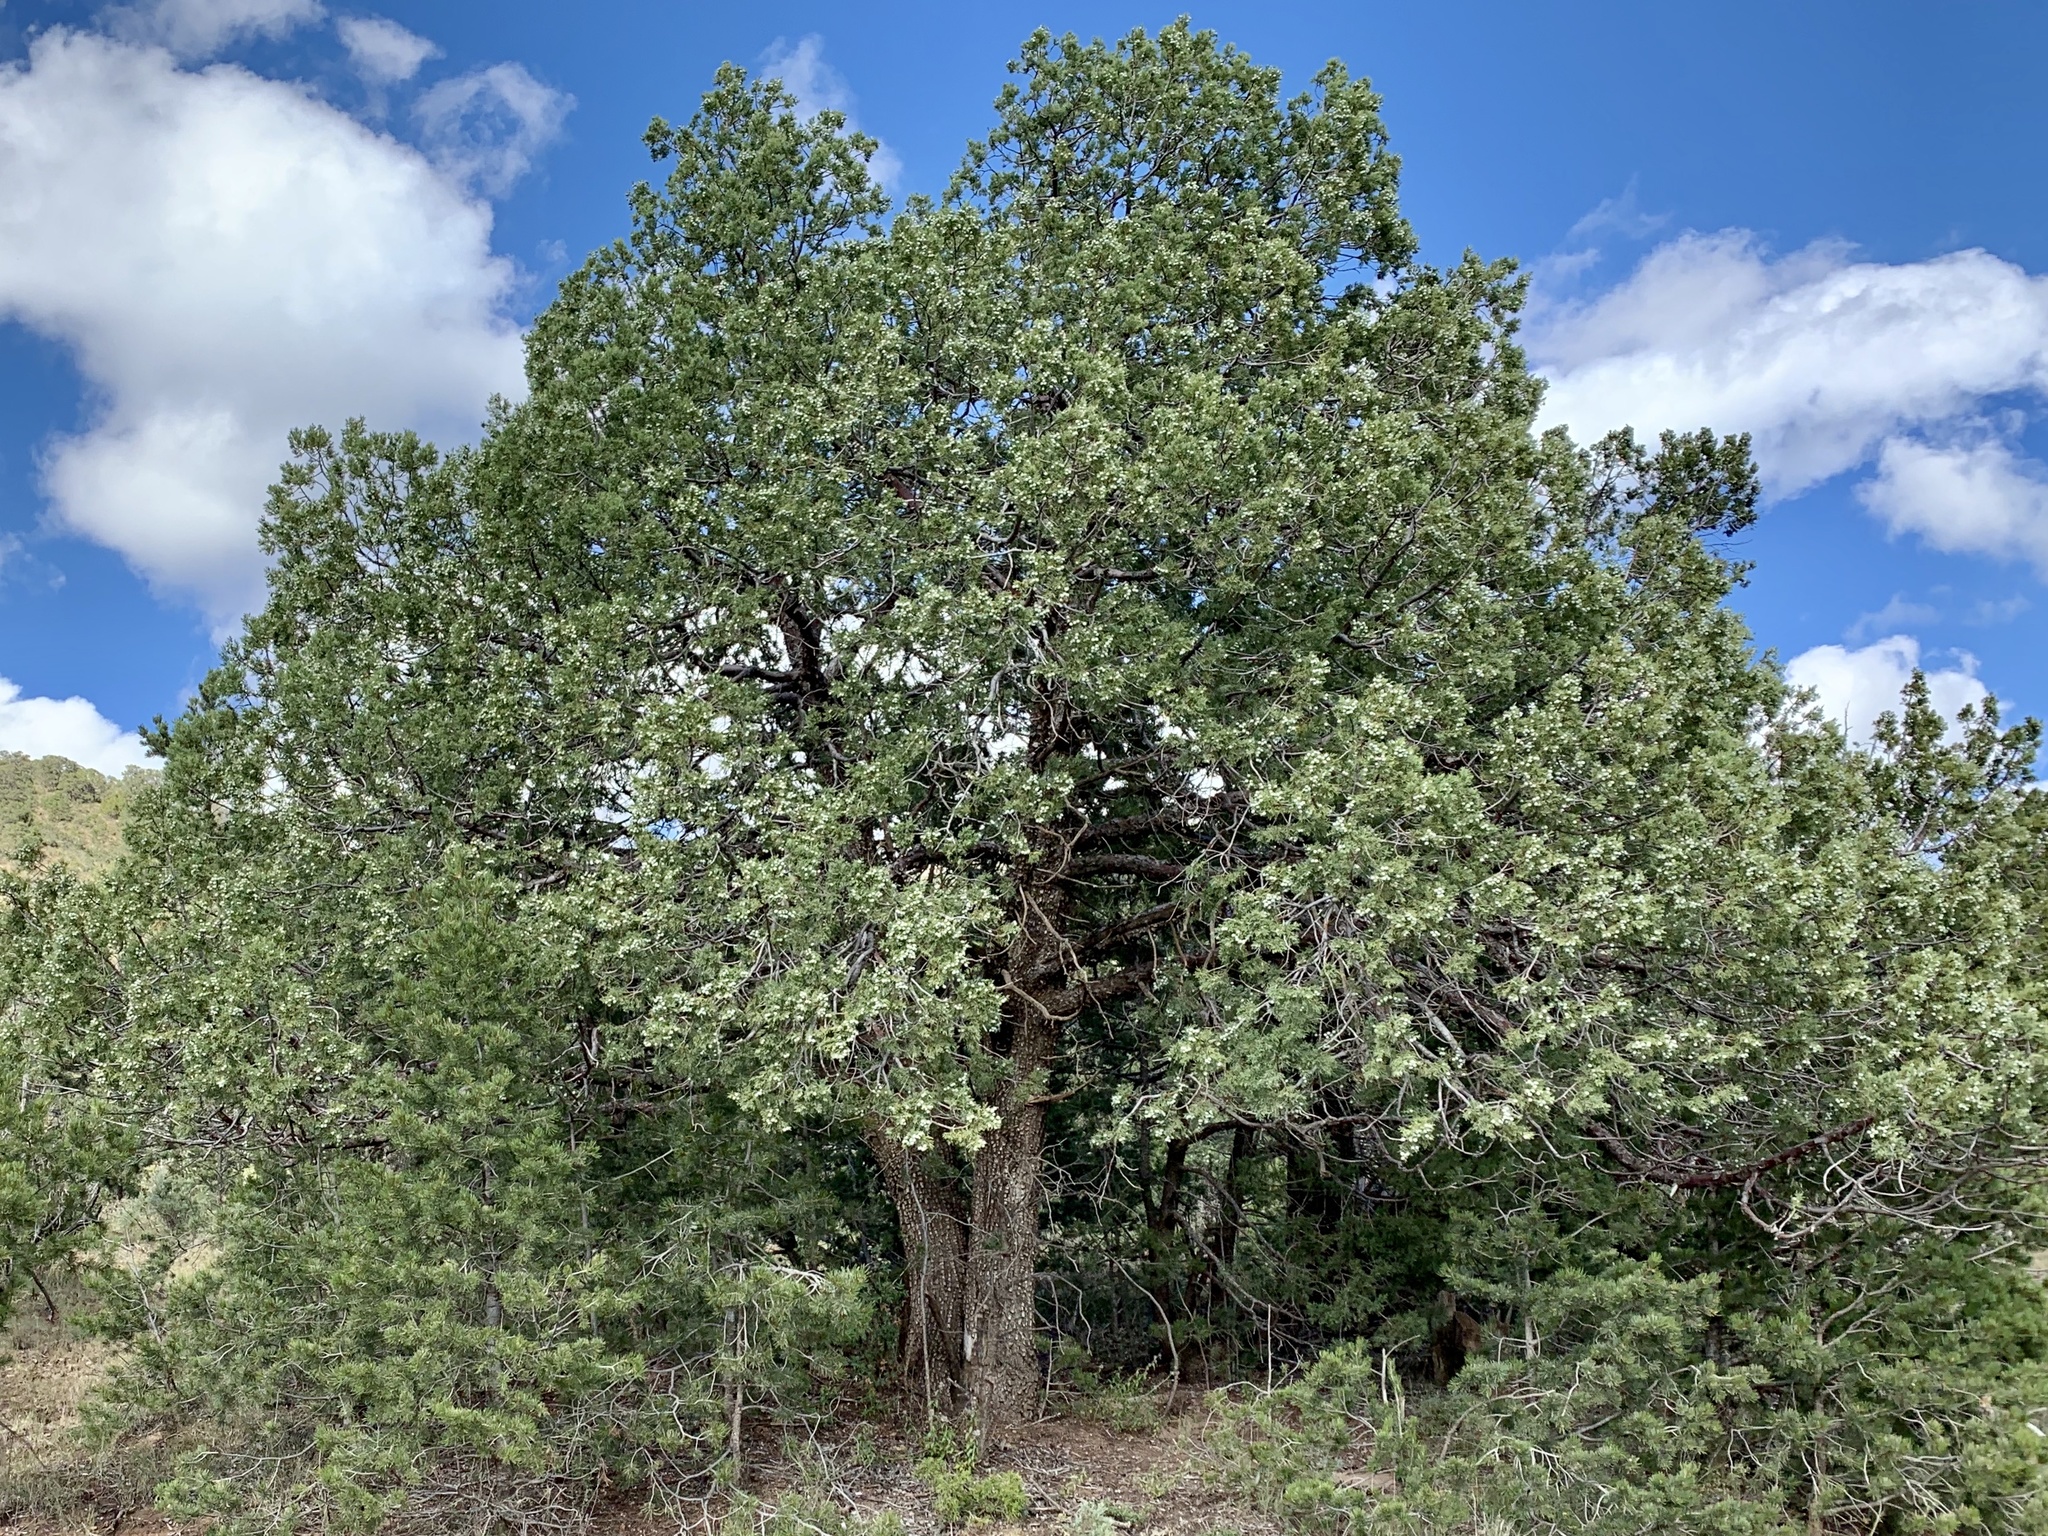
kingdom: Plantae
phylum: Tracheophyta
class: Pinopsida
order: Pinales
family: Cupressaceae
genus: Juniperus
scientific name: Juniperus deppeana
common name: Alligator juniper
